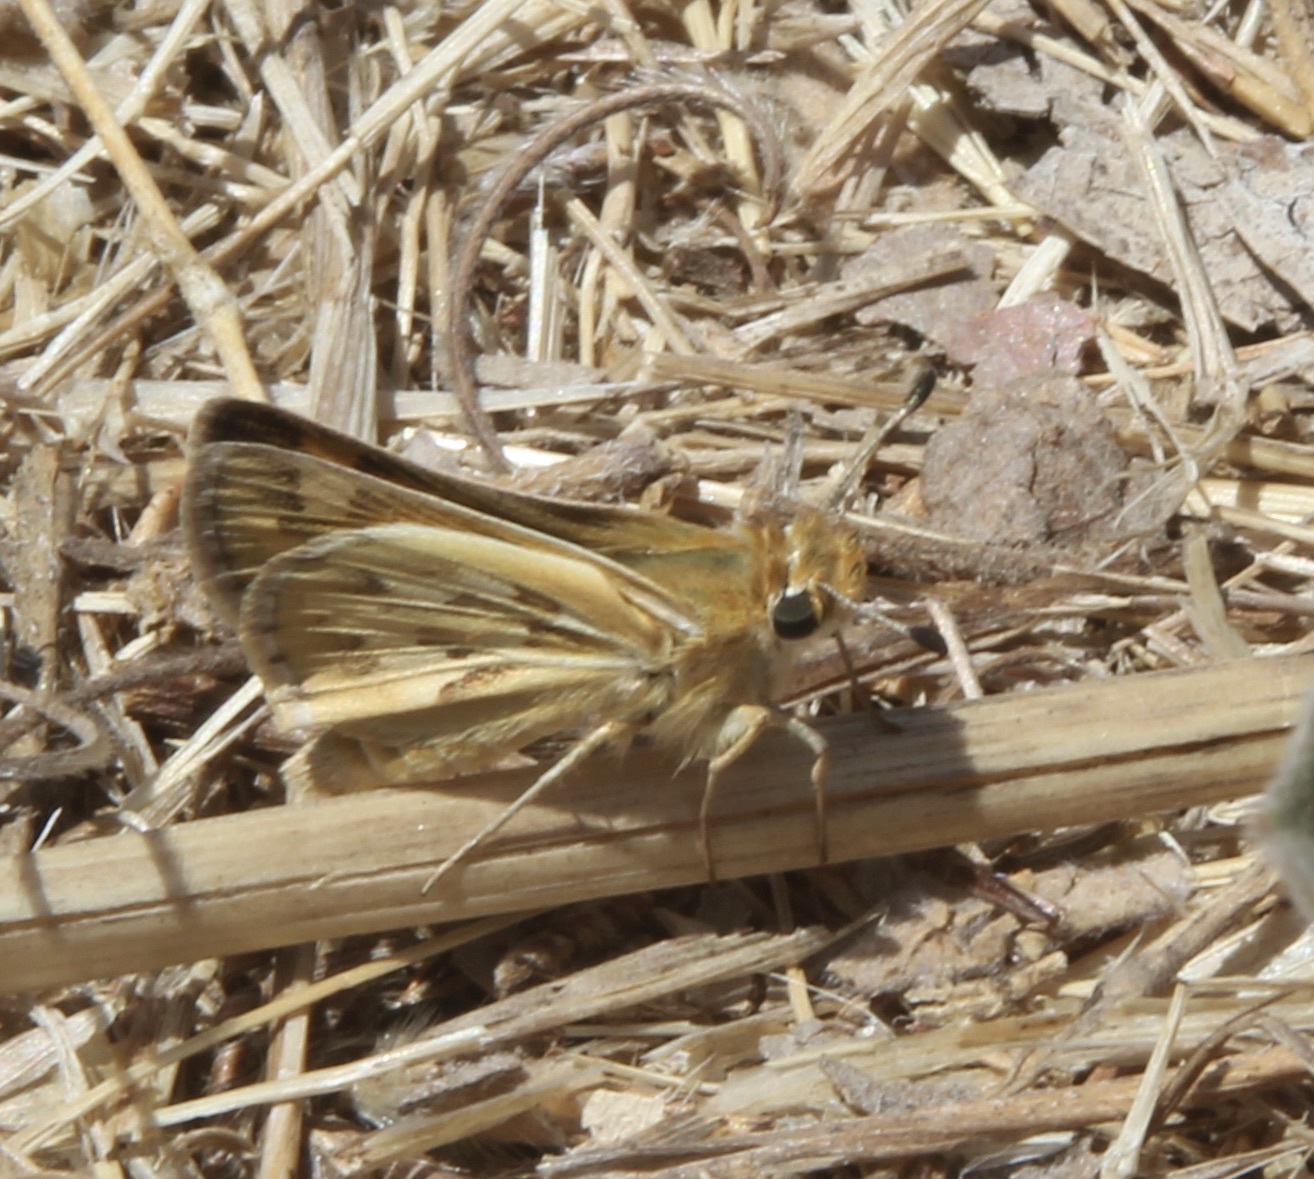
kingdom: Animalia
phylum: Arthropoda
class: Insecta
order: Lepidoptera
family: Hesperiidae
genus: Polites
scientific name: Polites sabuleti
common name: Sandhill skipper
